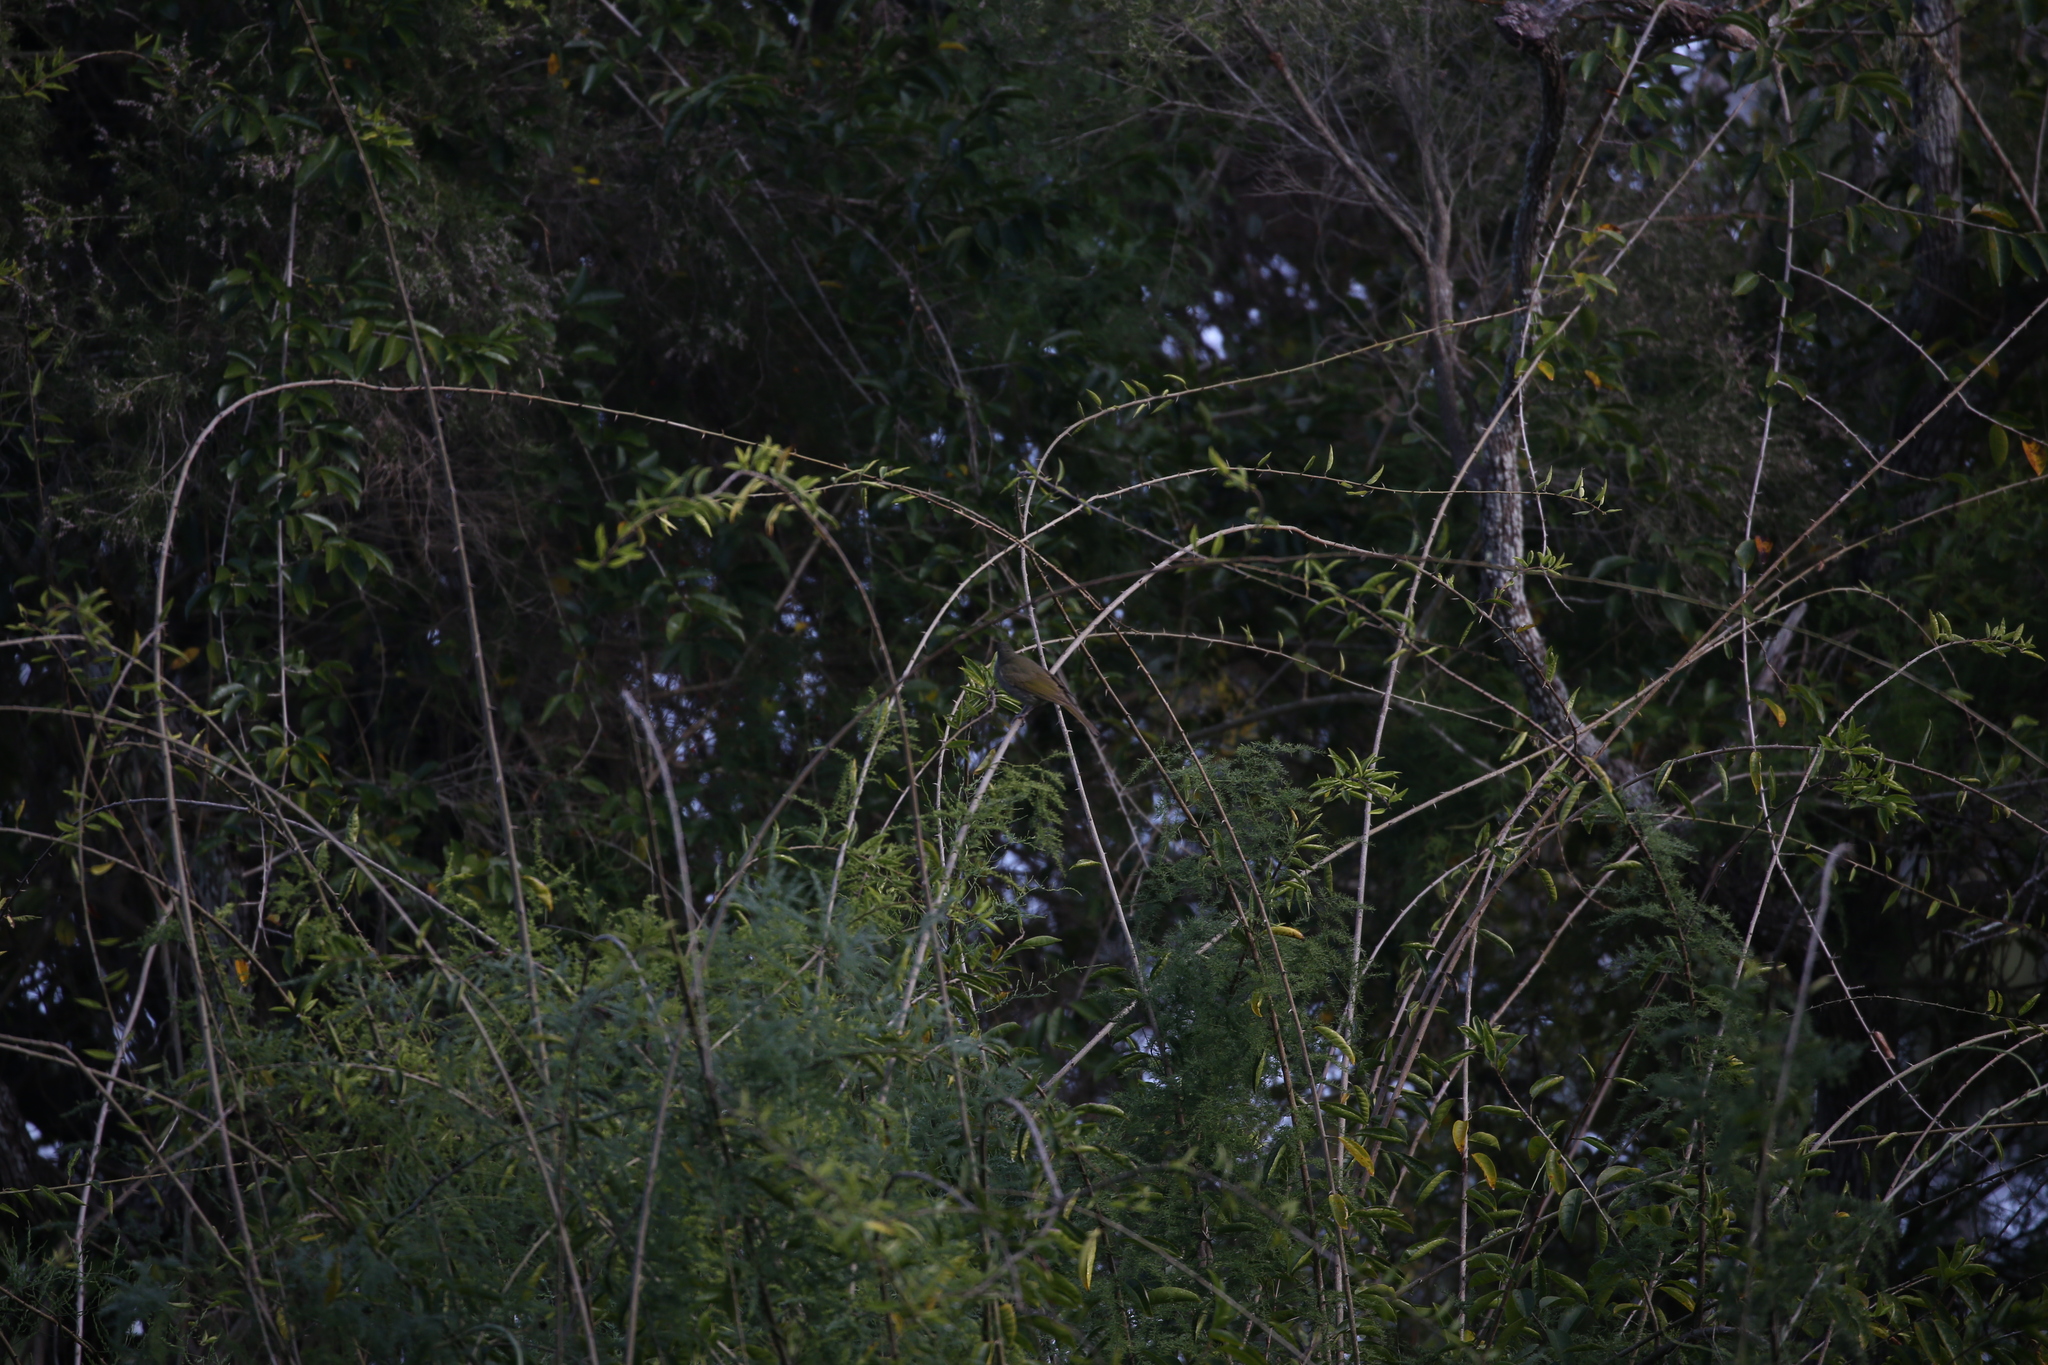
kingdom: Animalia
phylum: Chordata
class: Aves
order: Passeriformes
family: Meliphagidae
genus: Meliphaga
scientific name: Meliphaga lewinii
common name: Lewin's honeyeater
